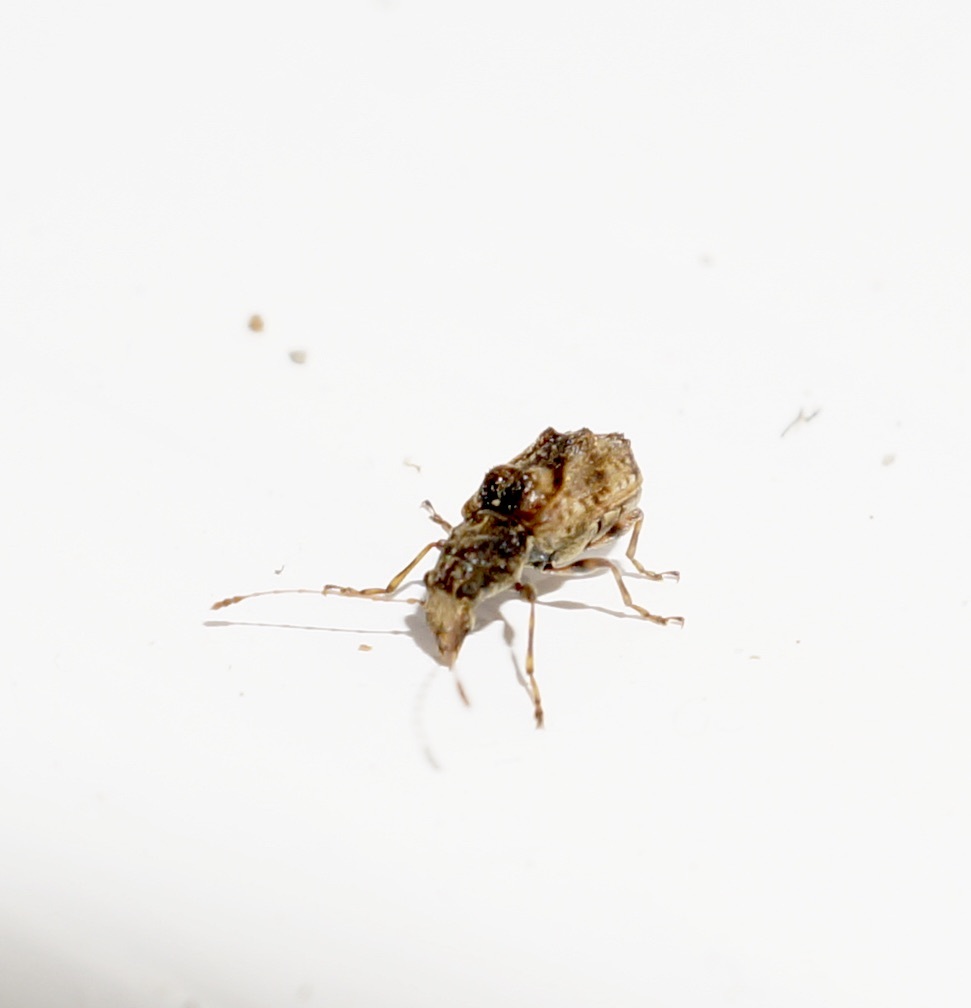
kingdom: Animalia
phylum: Arthropoda
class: Insecta
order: Coleoptera
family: Anthribidae
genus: Phymatus
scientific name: Phymatus
